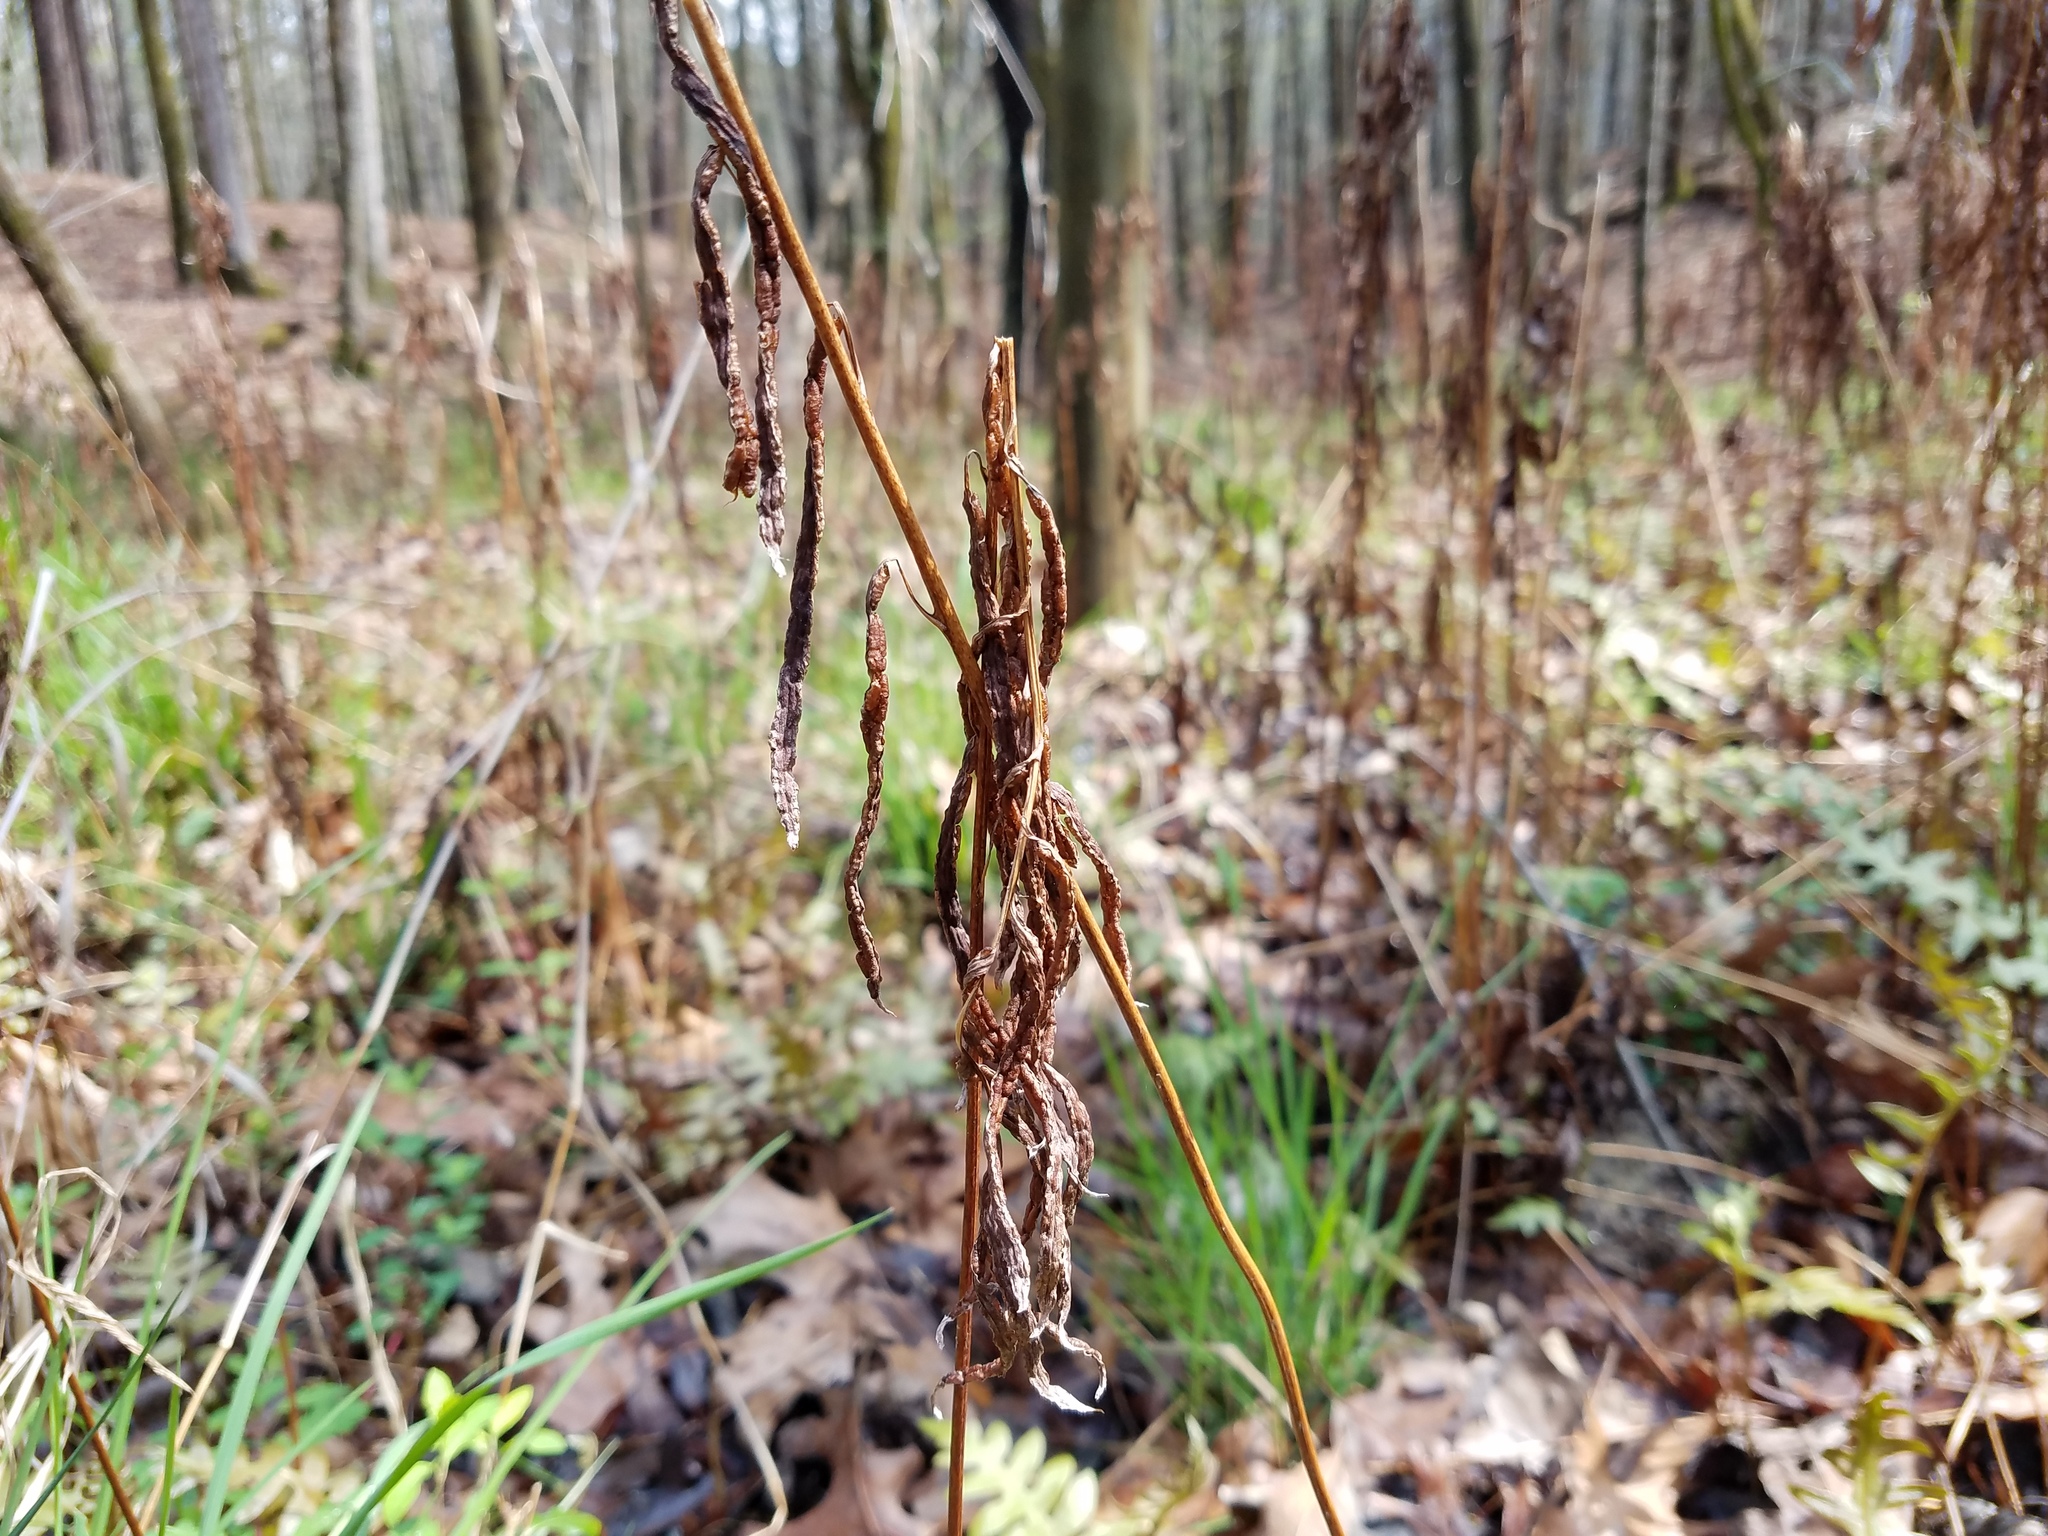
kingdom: Plantae
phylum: Tracheophyta
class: Polypodiopsida
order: Polypodiales
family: Blechnaceae
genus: Lorinseria
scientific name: Lorinseria areolata
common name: Dwarf chain fern
